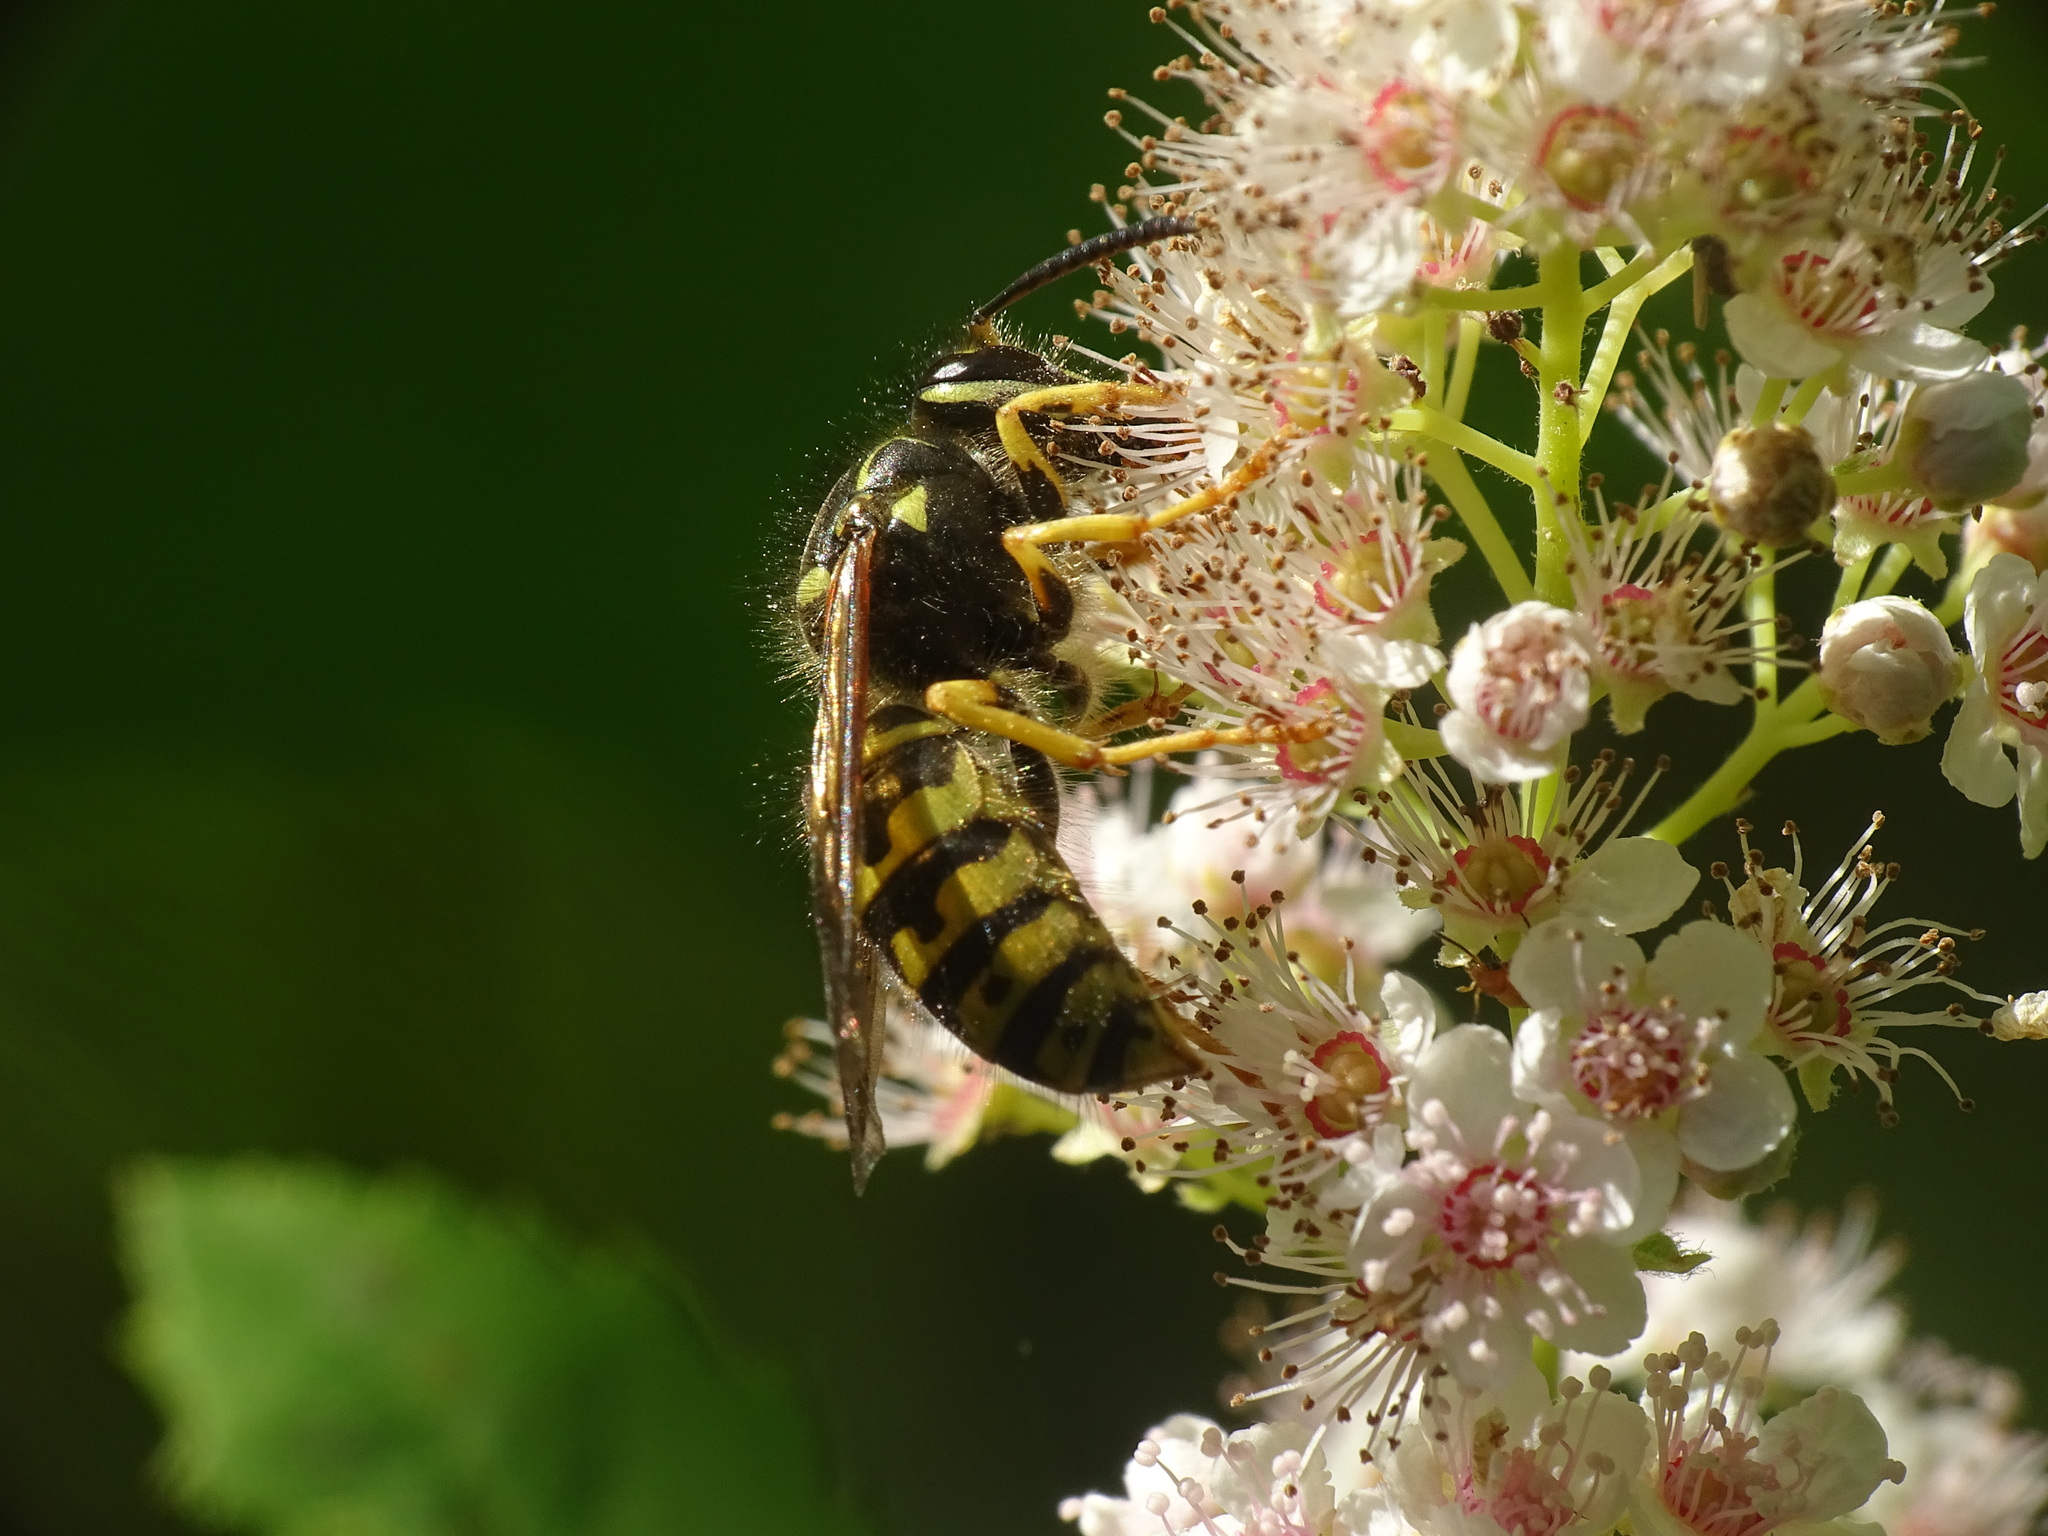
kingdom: Animalia
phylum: Arthropoda
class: Insecta
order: Hymenoptera
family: Vespidae
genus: Dolichovespula
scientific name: Dolichovespula arenaria
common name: Aerial yellowjacket
